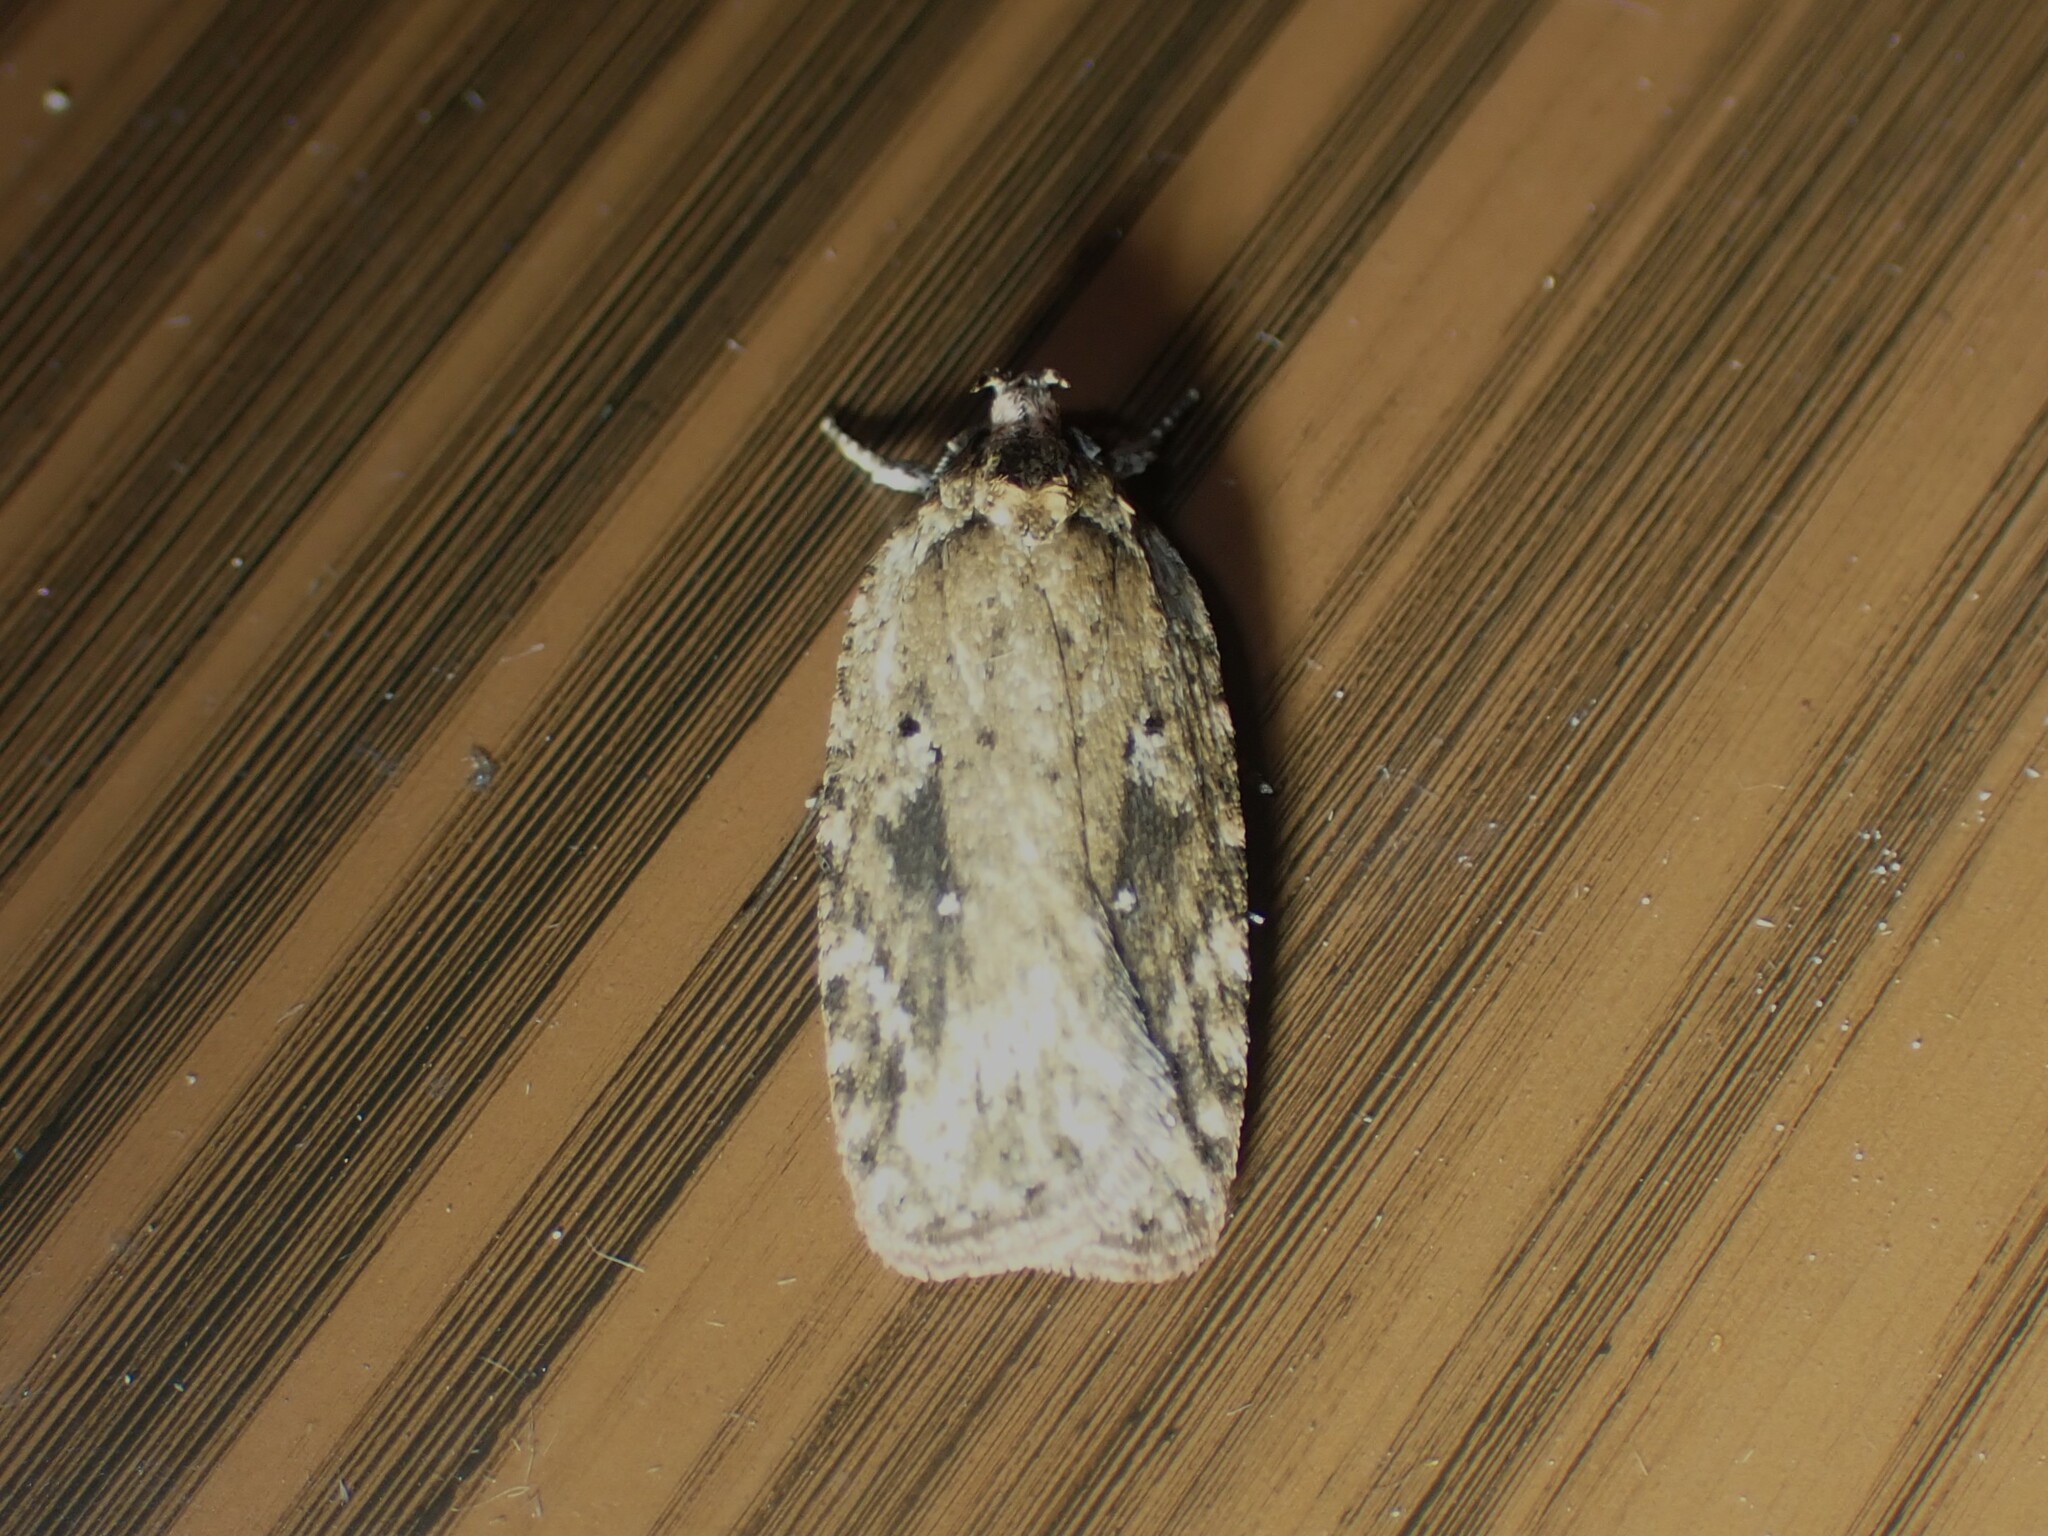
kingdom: Animalia
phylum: Arthropoda
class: Insecta
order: Lepidoptera
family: Depressariidae
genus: Agonopterix
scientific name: Agonopterix pulvipennella
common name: Goldenrod leafffolder
